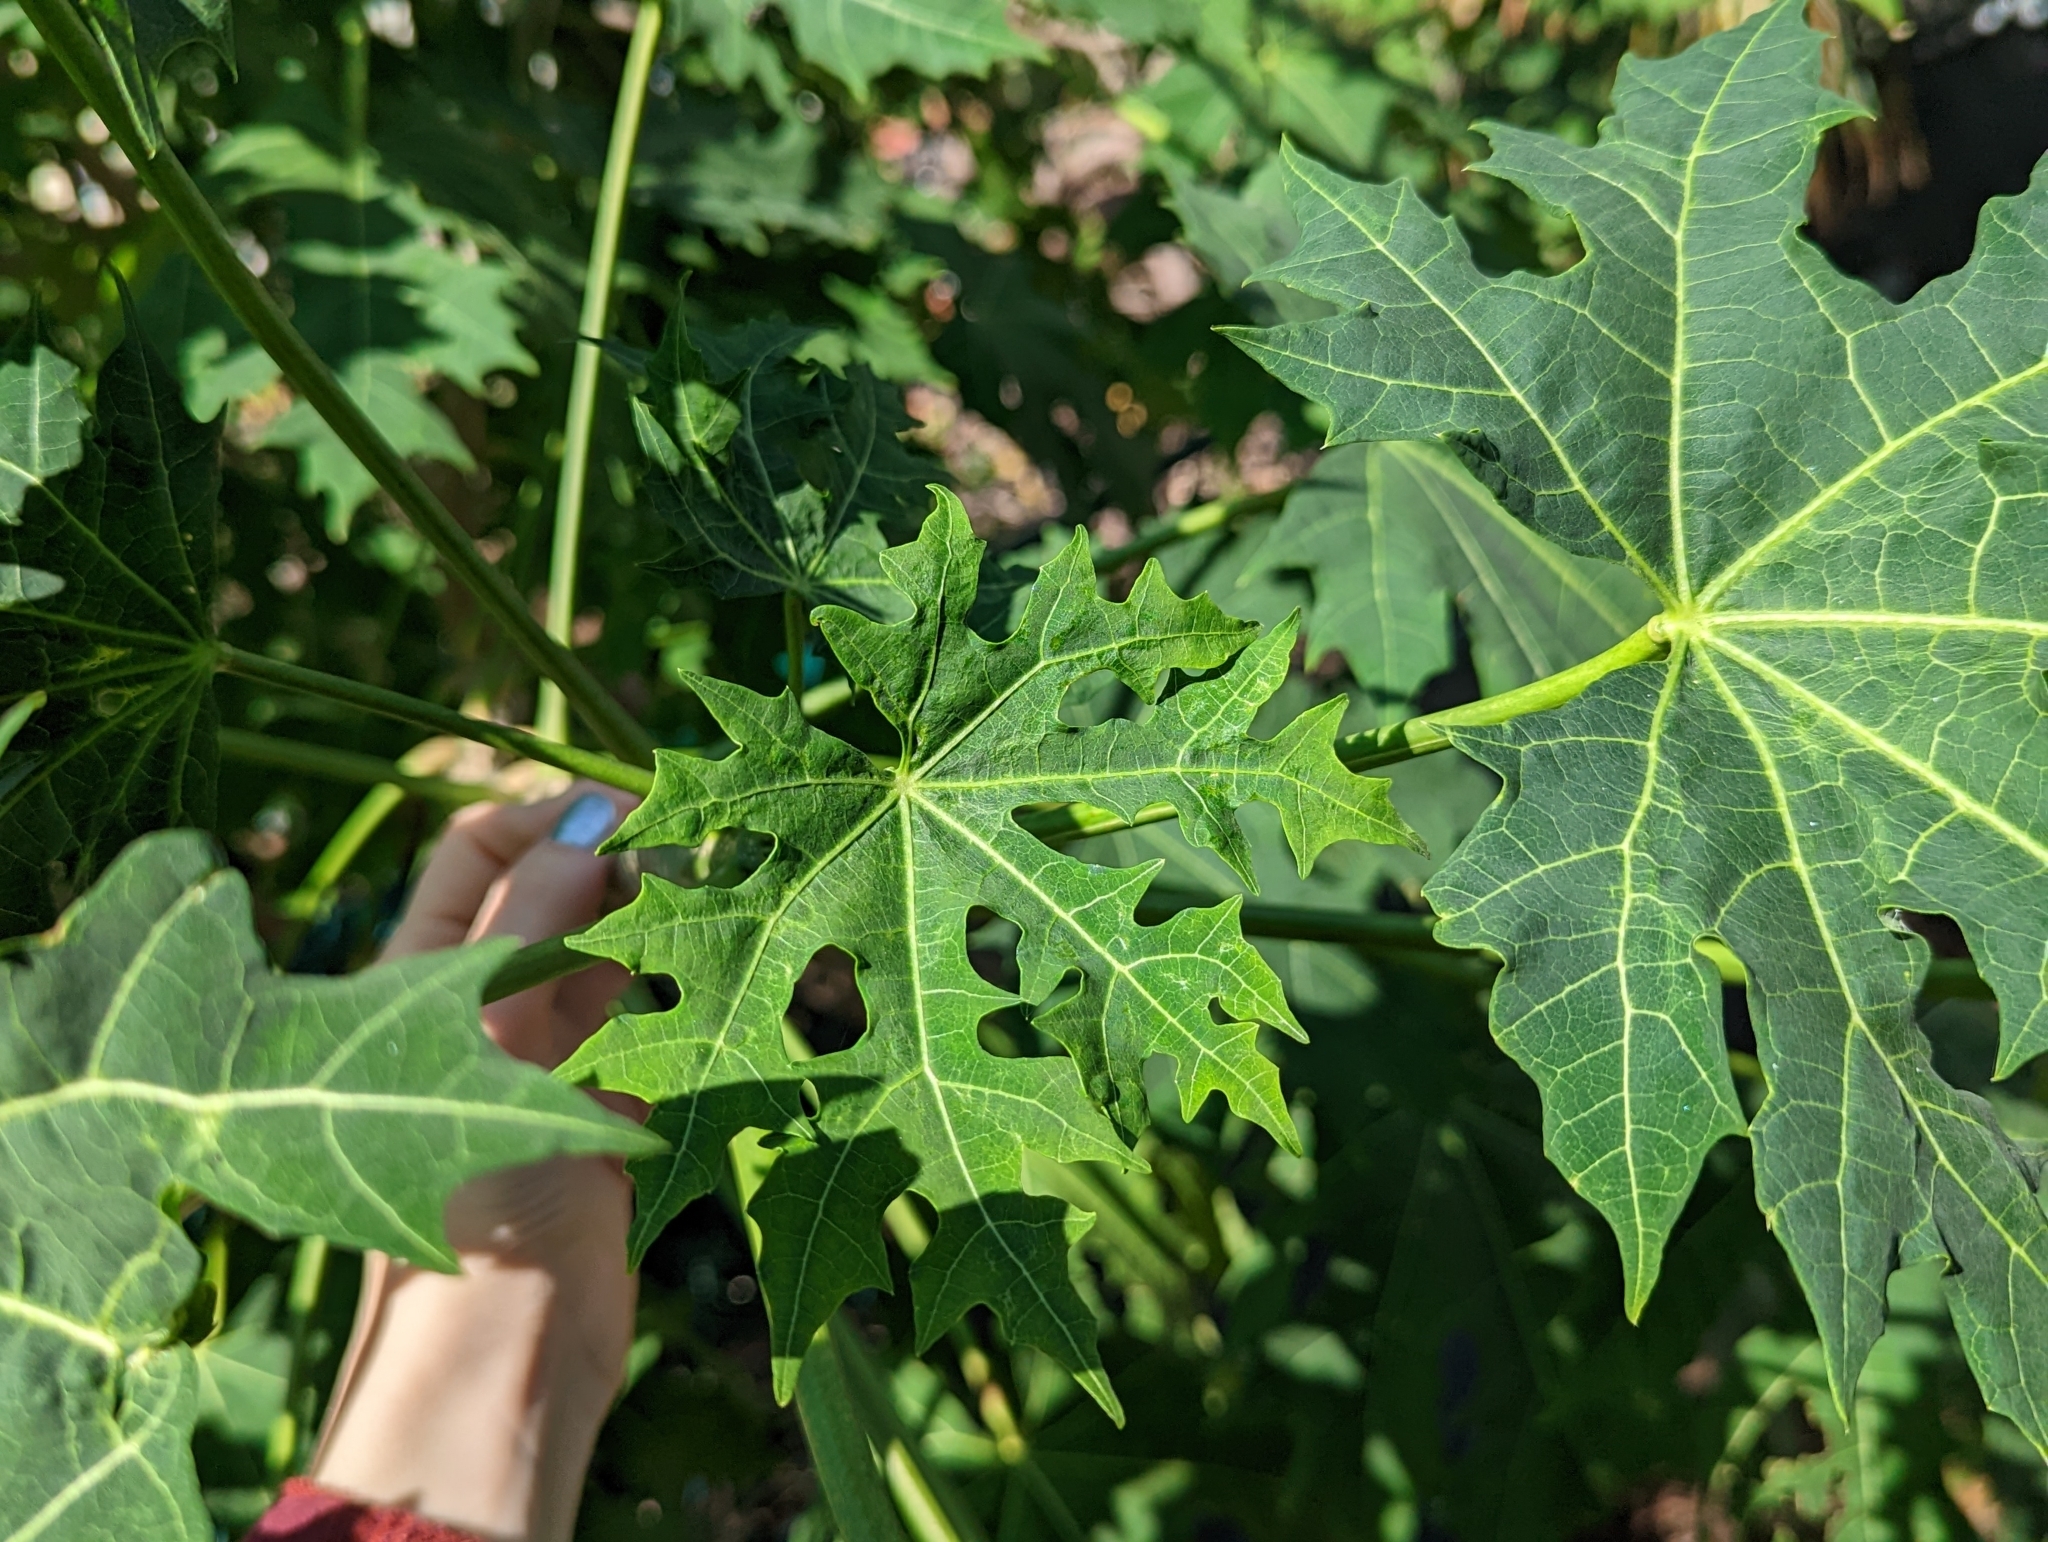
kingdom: Plantae
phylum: Tracheophyta
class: Magnoliopsida
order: Malpighiales
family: Euphorbiaceae
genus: Cnidoscolus
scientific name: Cnidoscolus aconitifolius
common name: Cabbage-star
